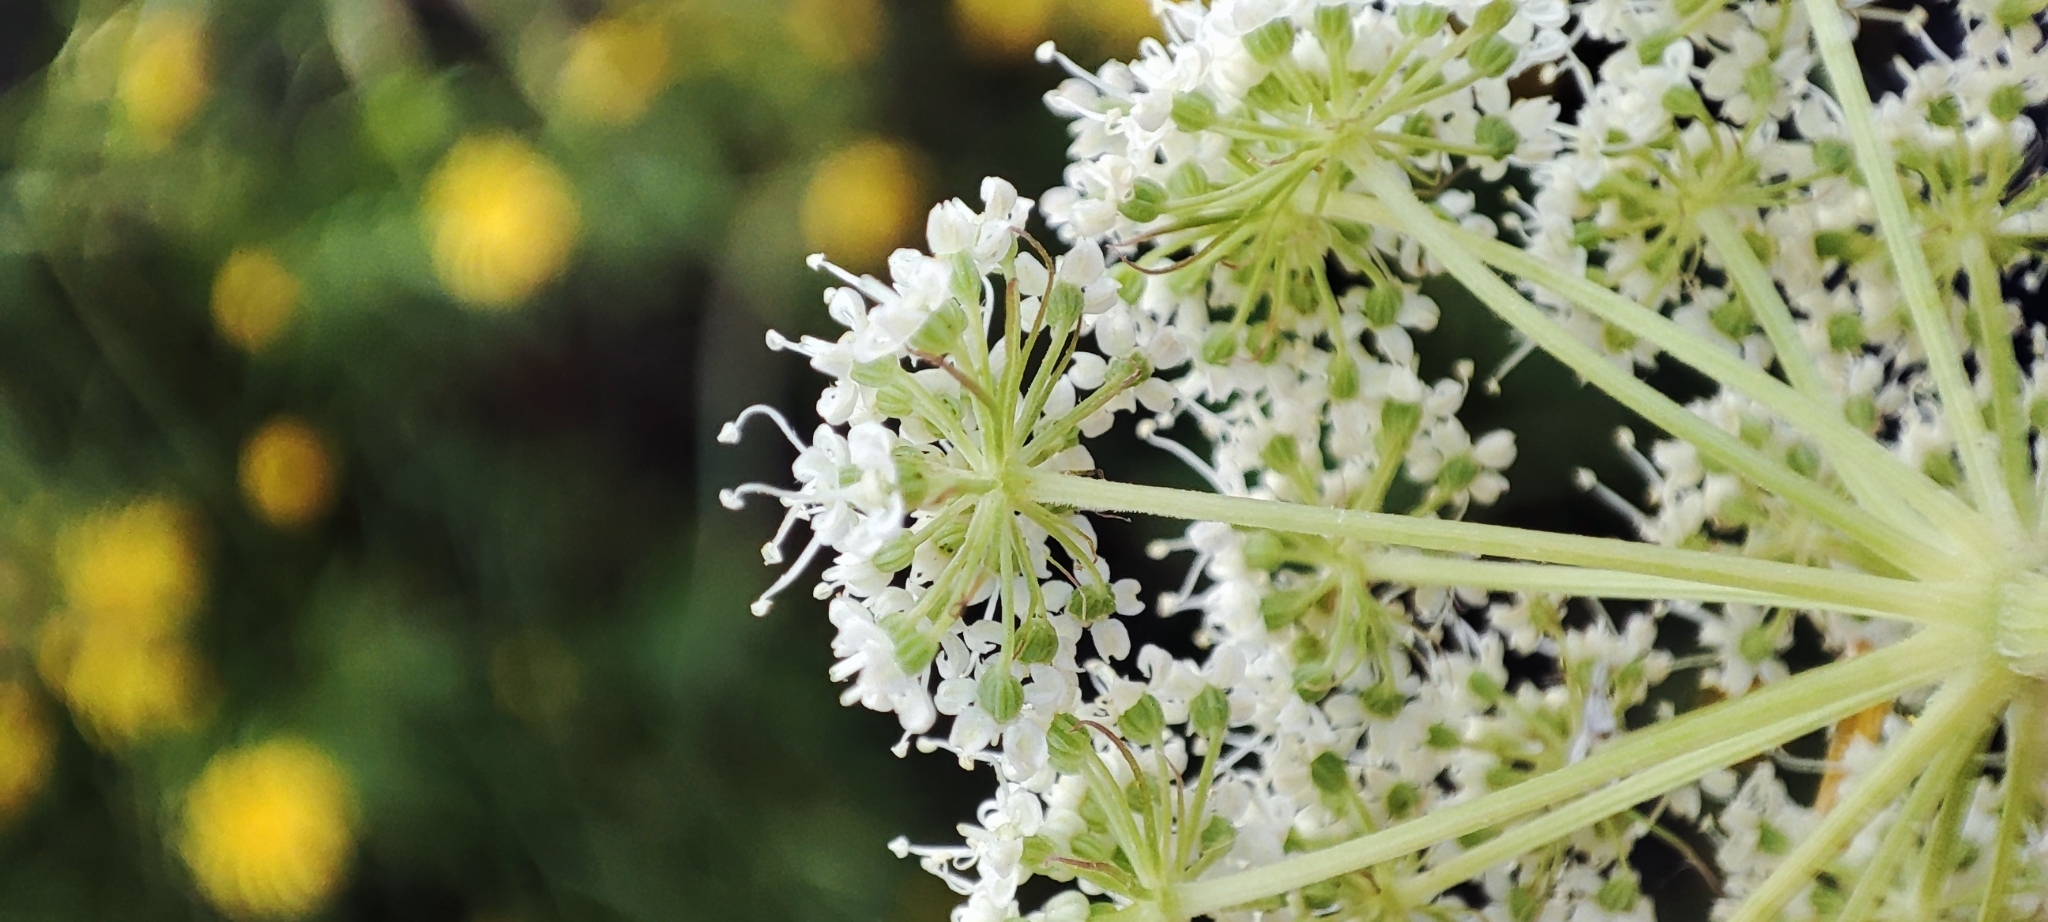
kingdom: Plantae
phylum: Tracheophyta
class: Magnoliopsida
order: Apiales
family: Apiaceae
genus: Kadenia
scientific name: Kadenia dubia
